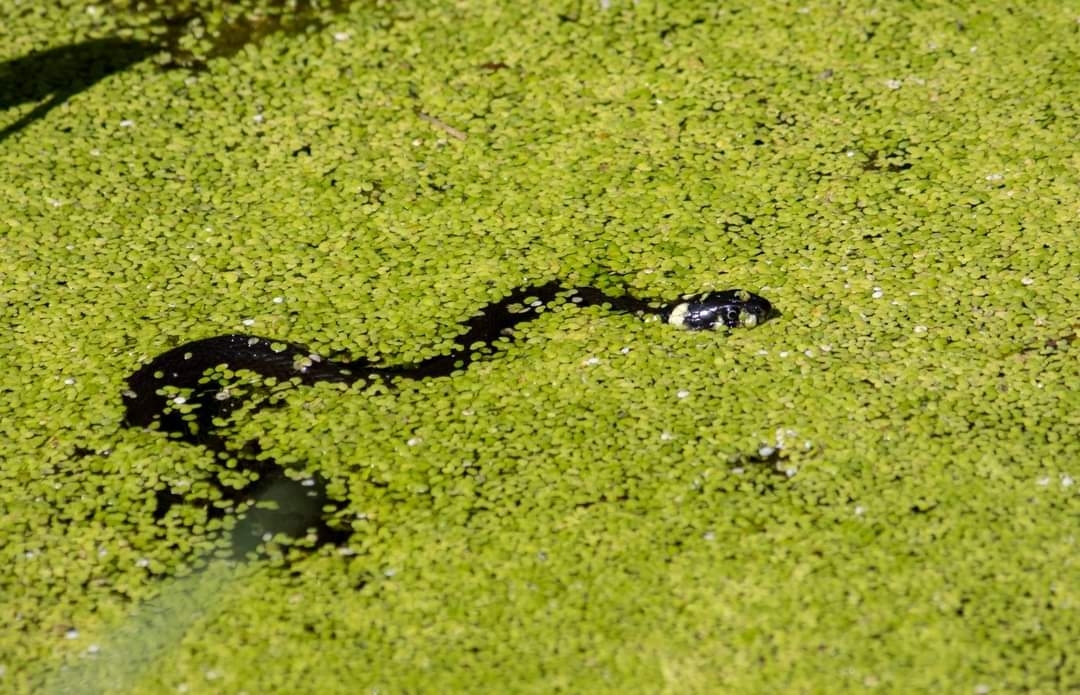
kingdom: Animalia
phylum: Chordata
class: Squamata
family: Colubridae
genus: Natrix
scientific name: Natrix natrix
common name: Grass snake
